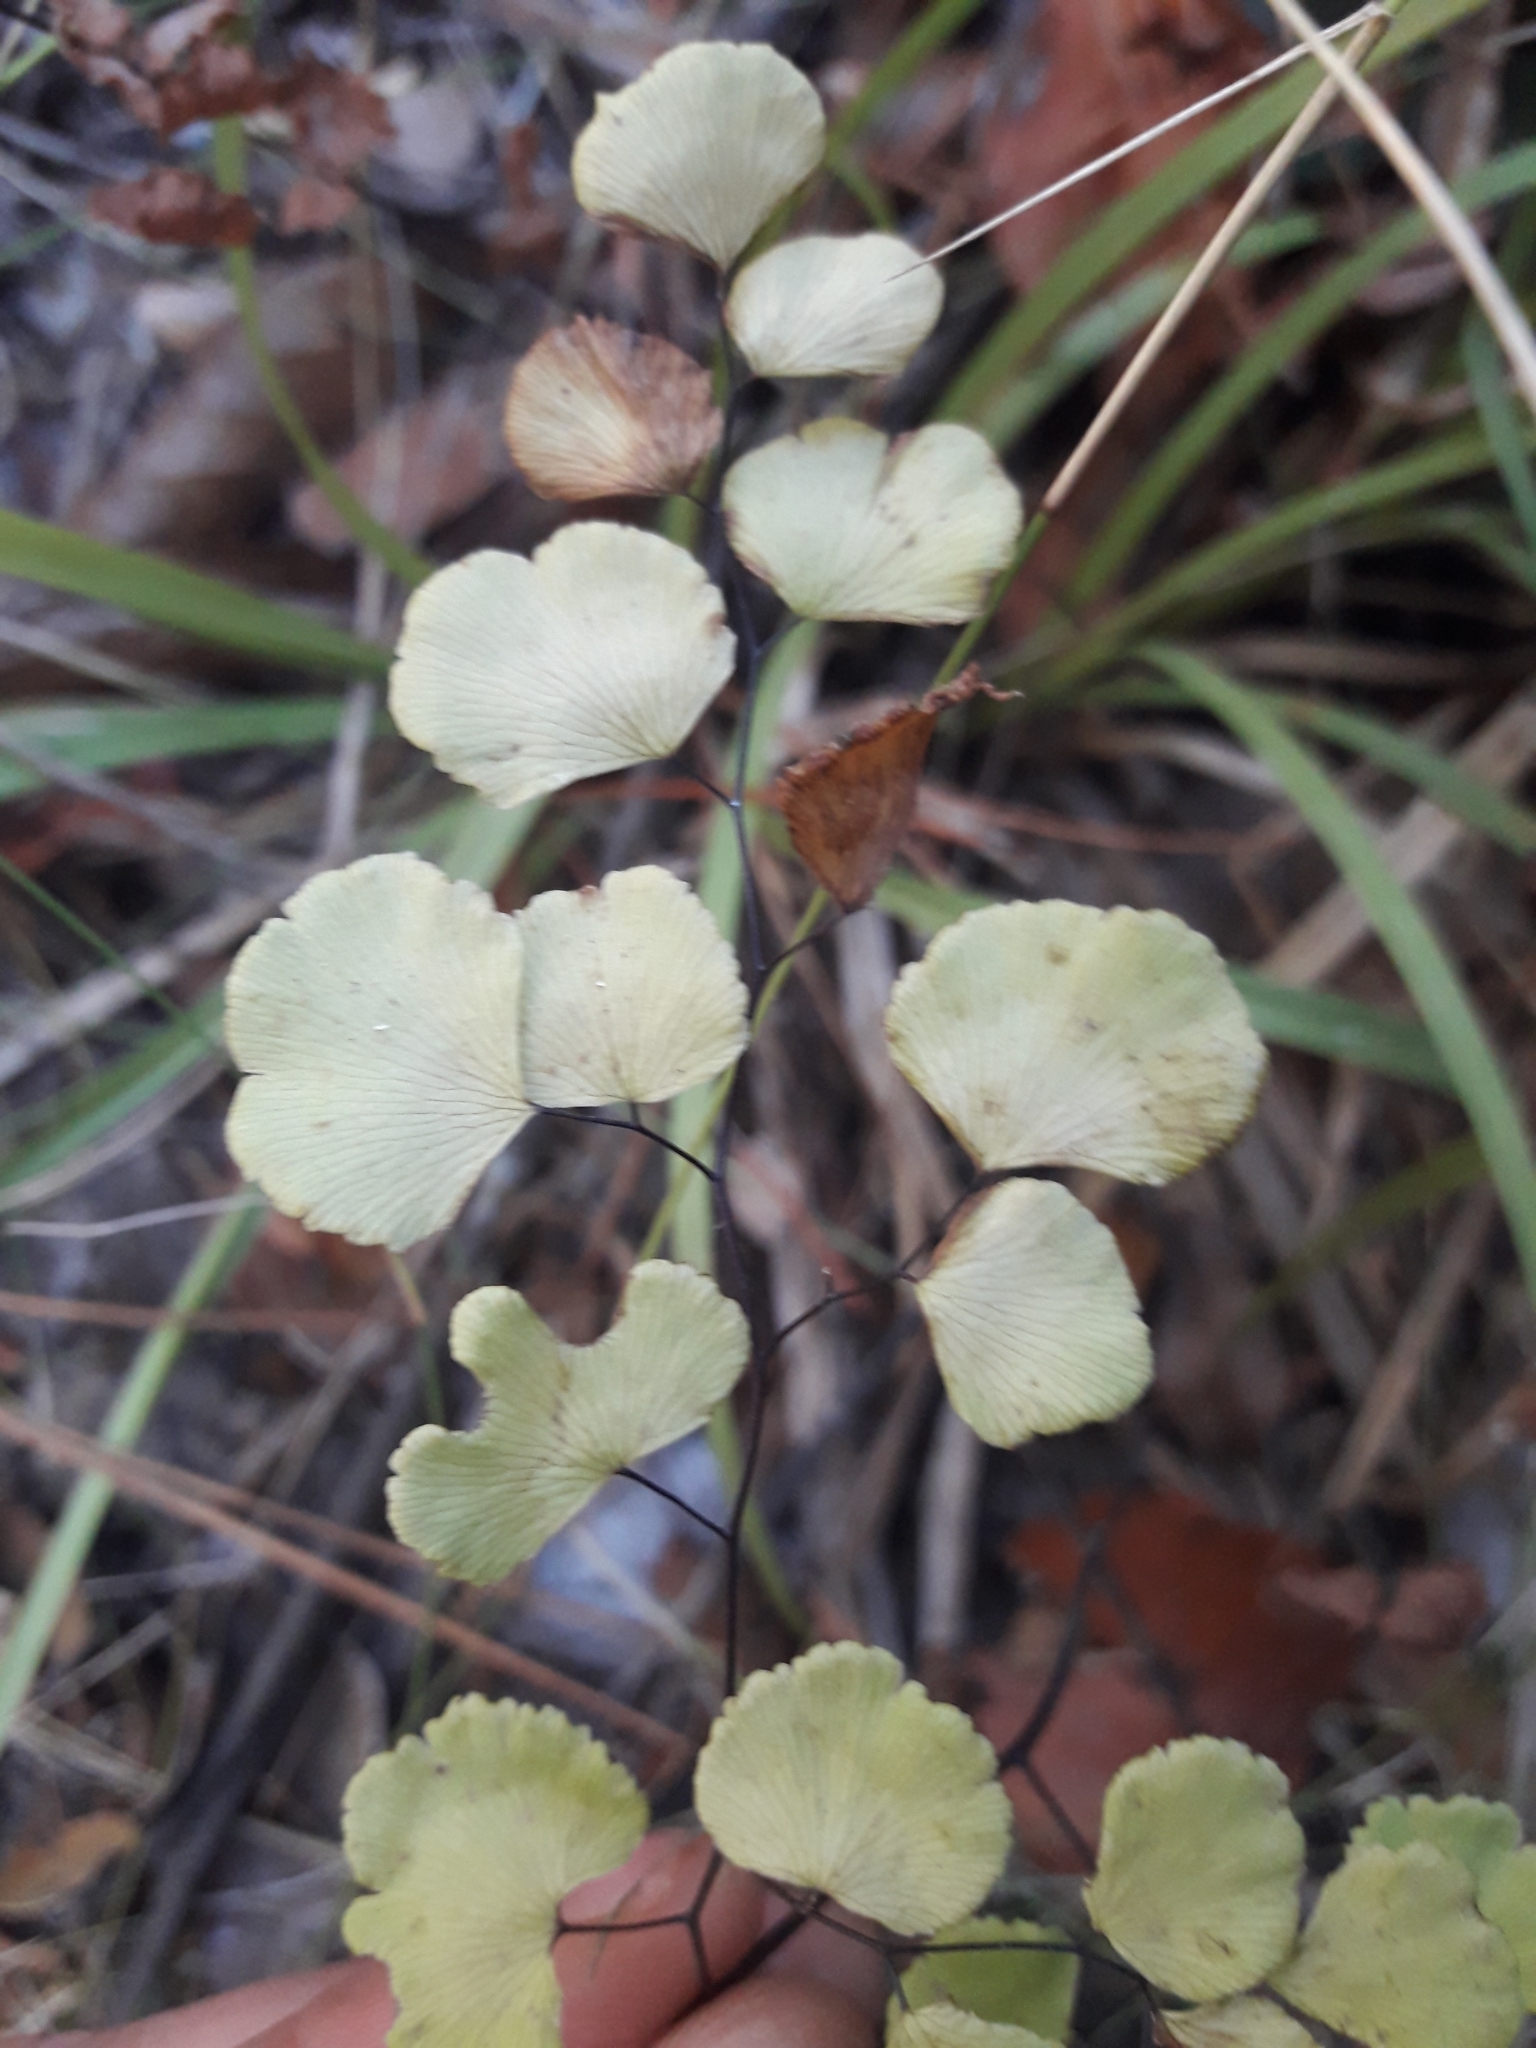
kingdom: Plantae
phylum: Tracheophyta
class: Polypodiopsida
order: Polypodiales
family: Pteridaceae
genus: Adiantum
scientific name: Adiantum chilense
